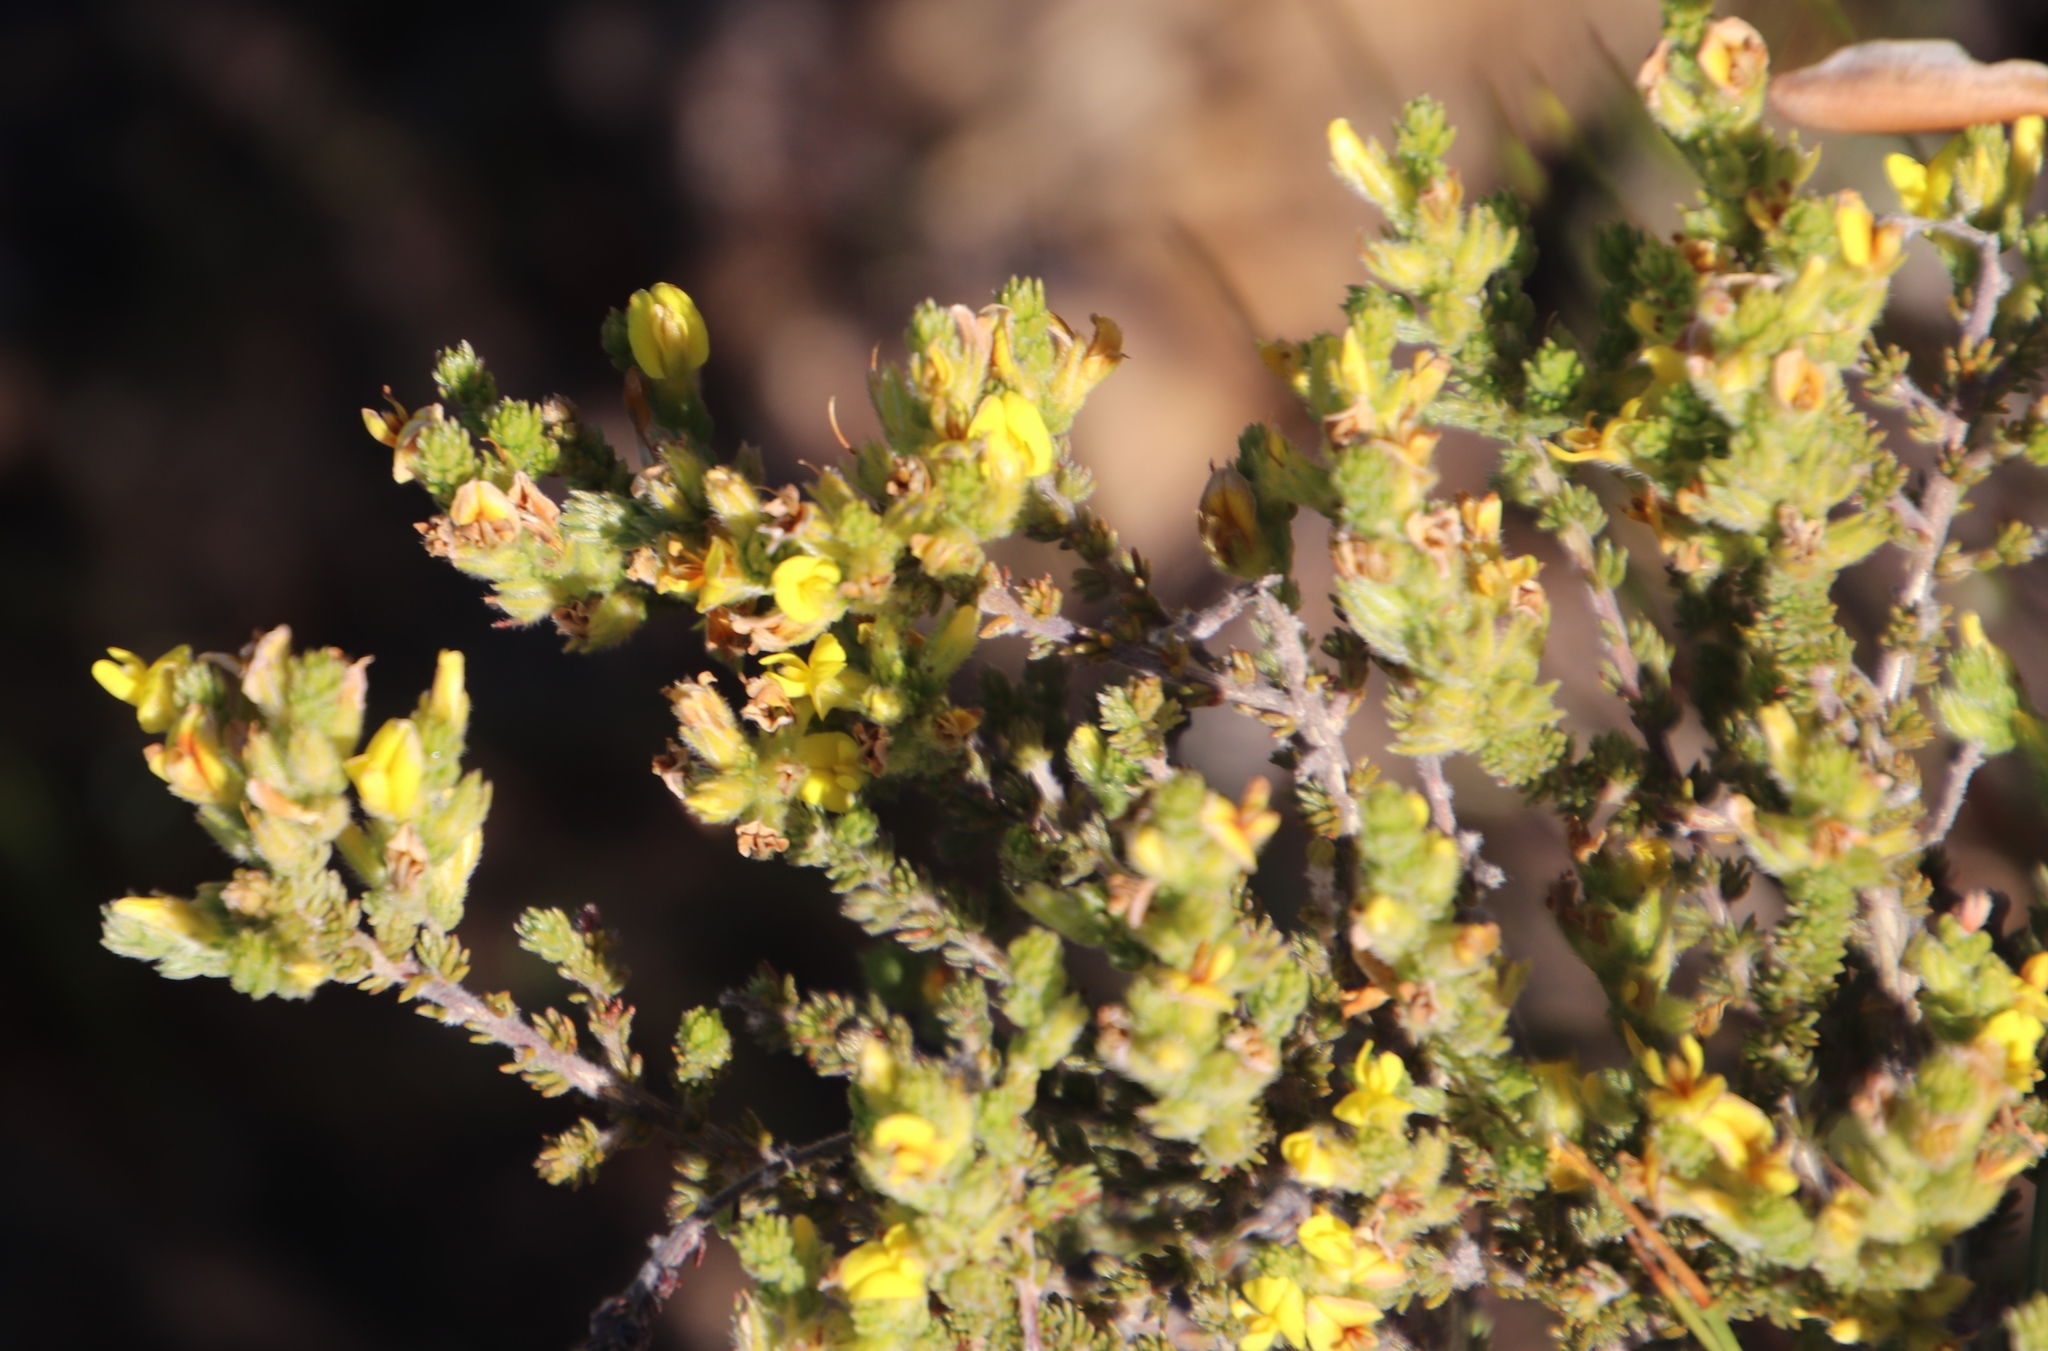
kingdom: Plantae
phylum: Tracheophyta
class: Magnoliopsida
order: Fabales
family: Fabaceae
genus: Aspalathus
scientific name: Aspalathus ericifolia
